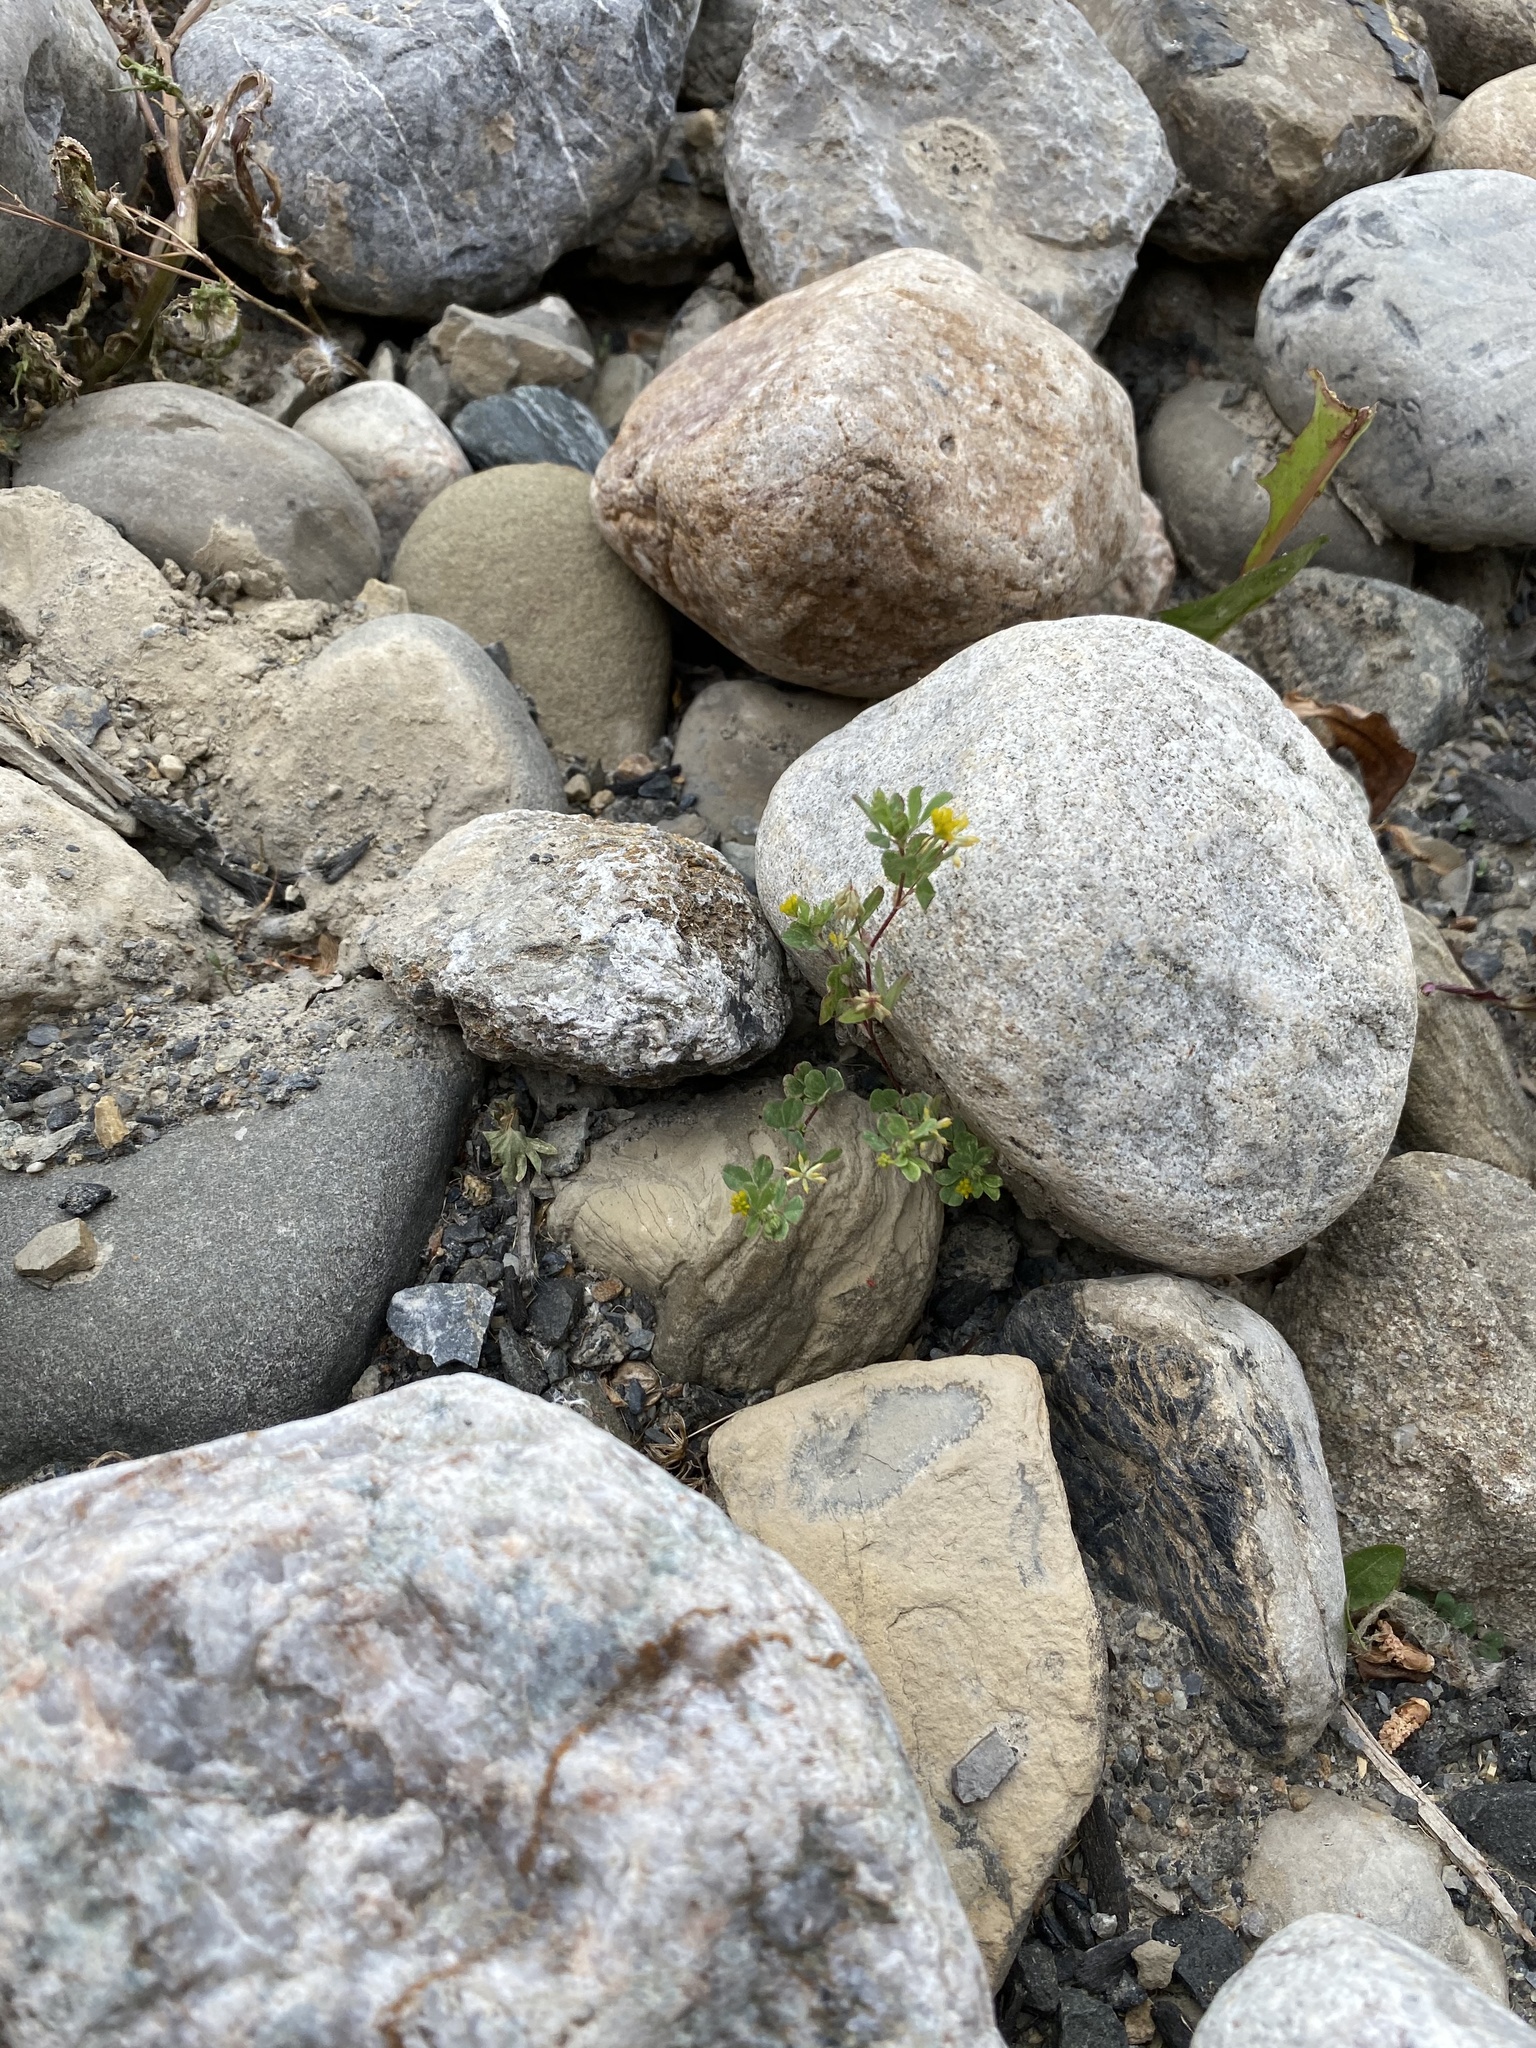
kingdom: Plantae
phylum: Tracheophyta
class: Magnoliopsida
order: Fabales
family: Fabaceae
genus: Trifolium
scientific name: Trifolium dubium
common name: Suckling clover
